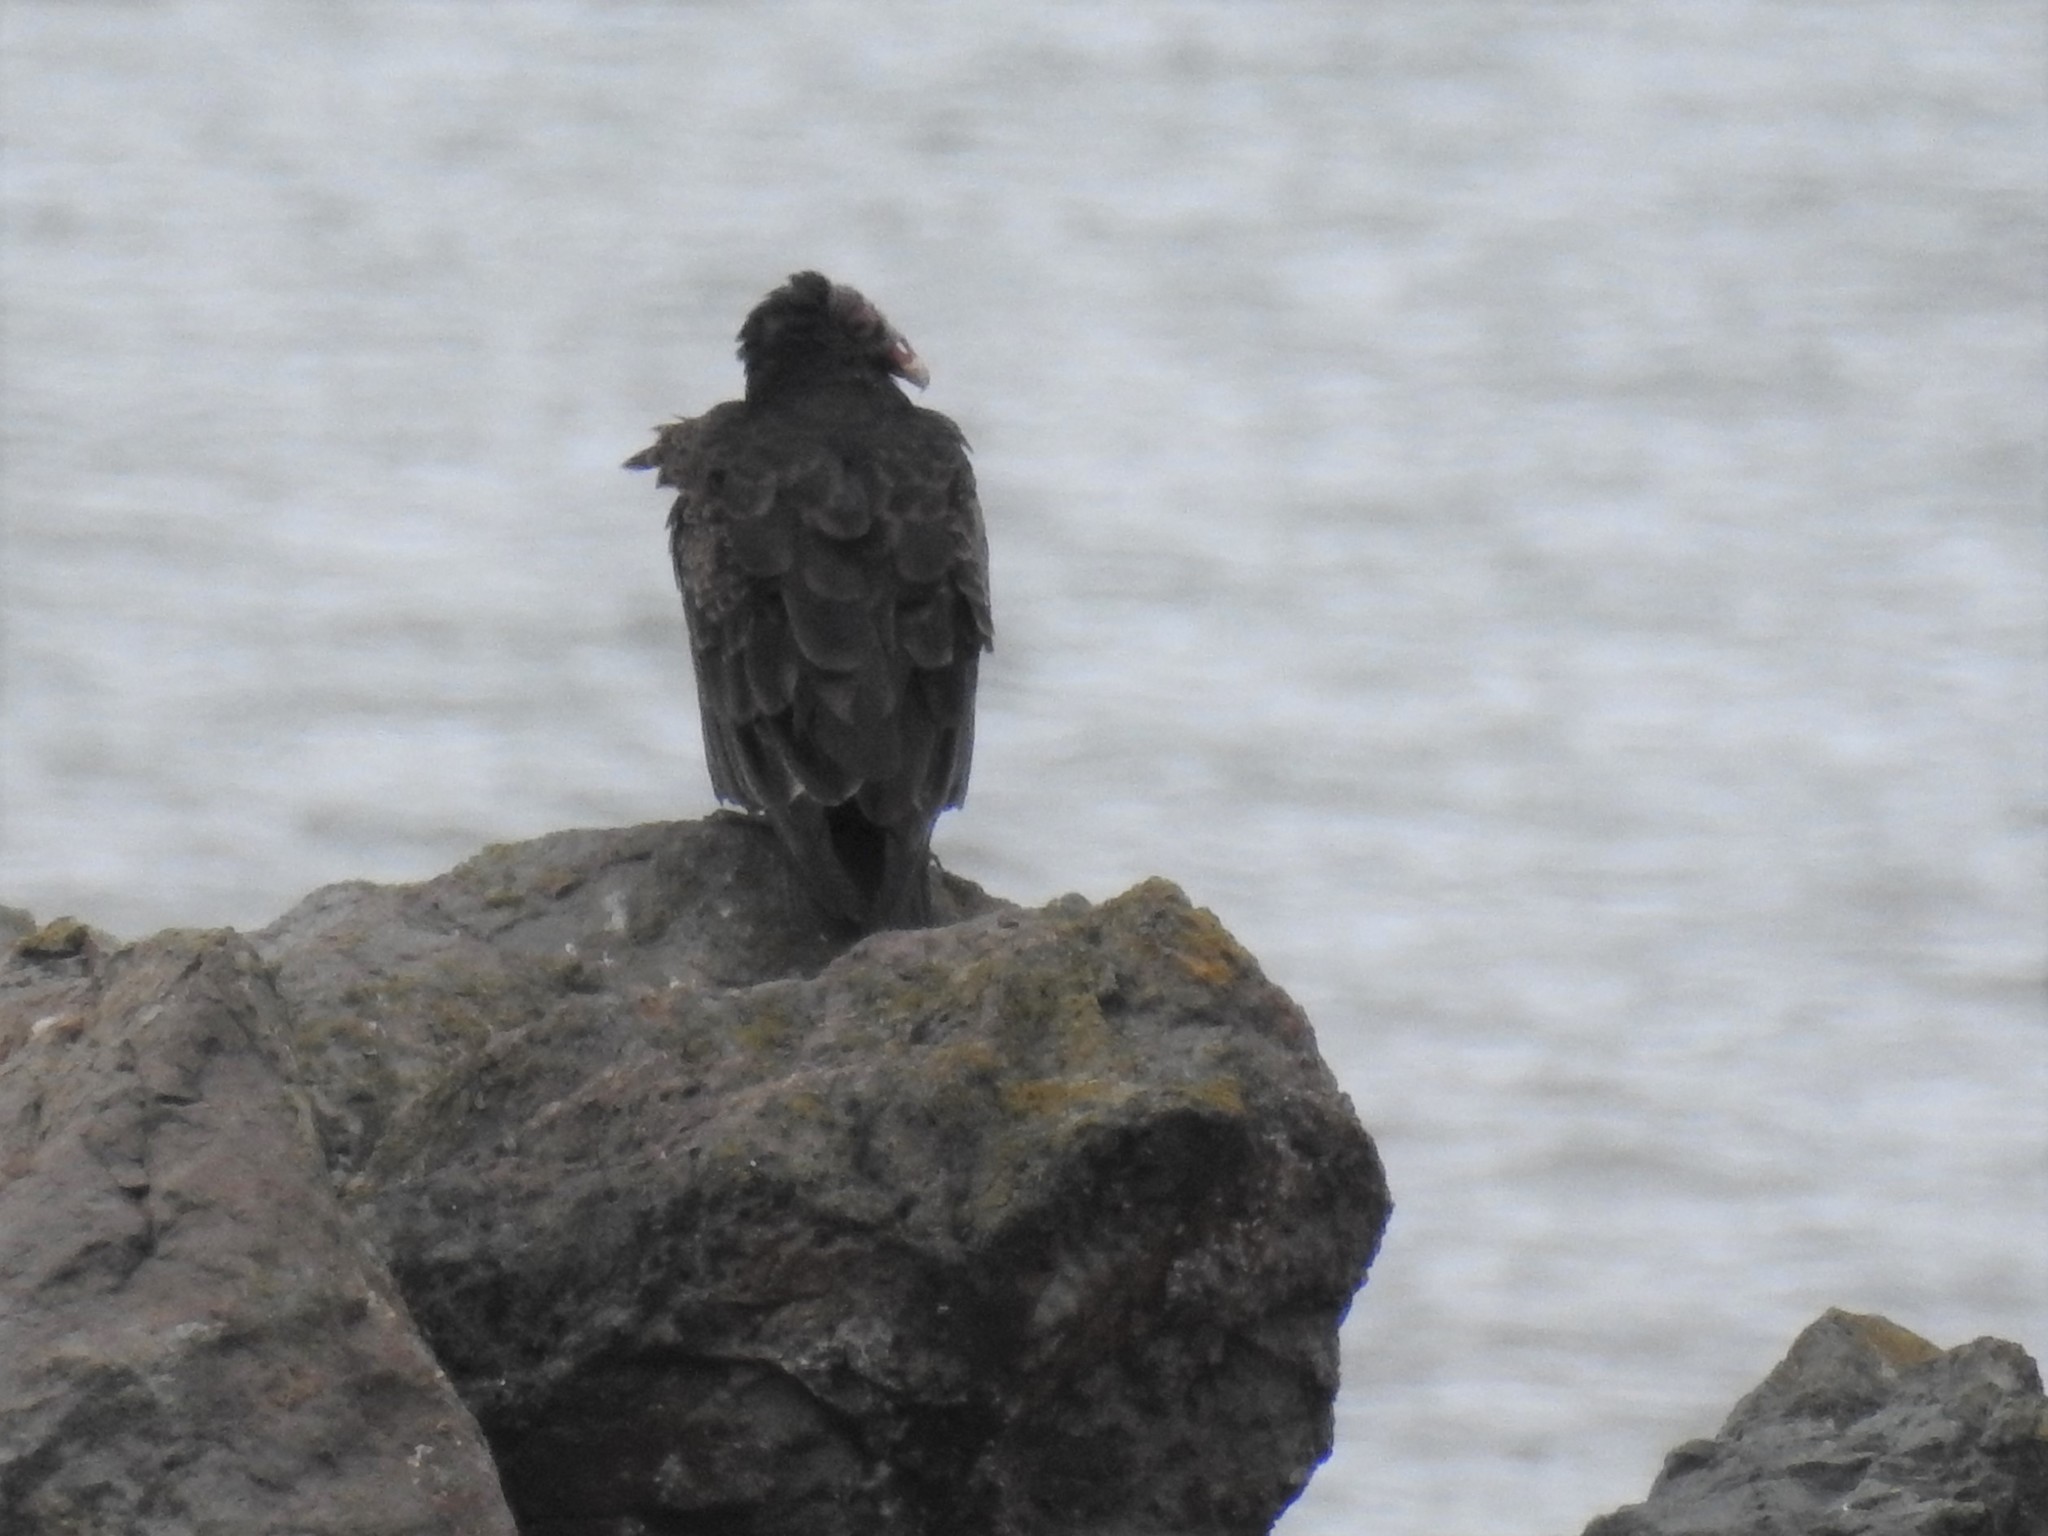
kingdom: Animalia
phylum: Chordata
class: Aves
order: Accipitriformes
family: Cathartidae
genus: Cathartes
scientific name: Cathartes aura
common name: Turkey vulture
